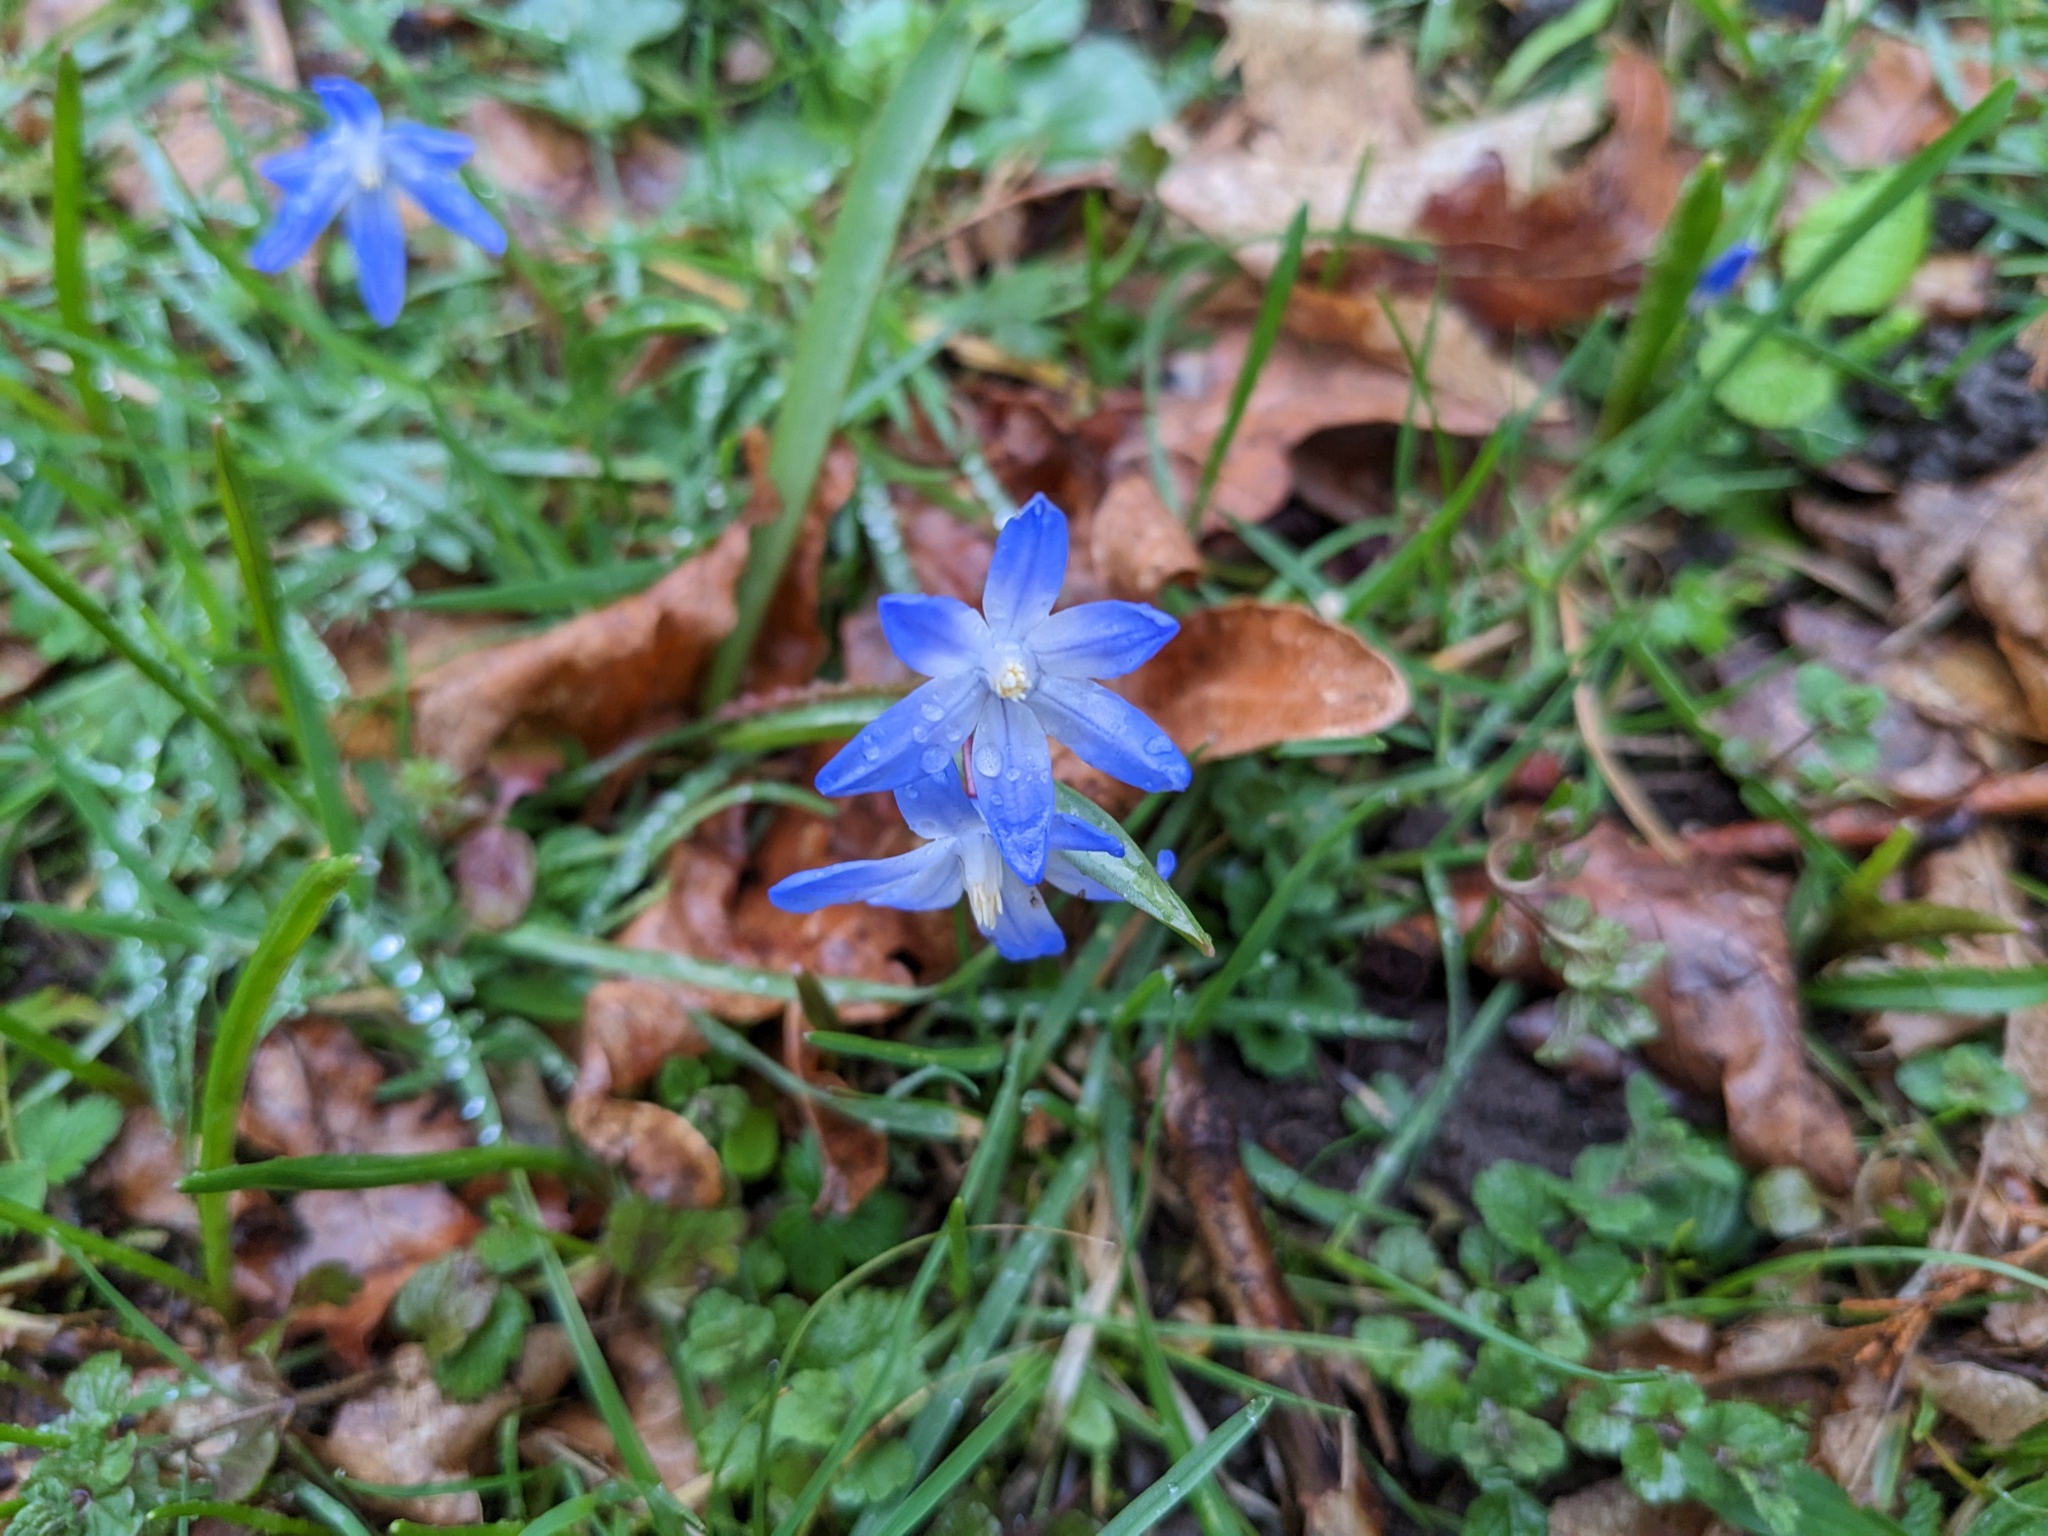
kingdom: Plantae
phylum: Tracheophyta
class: Liliopsida
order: Asparagales
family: Asparagaceae
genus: Scilla
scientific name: Scilla forbesii
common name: Glory-of-the-snow
